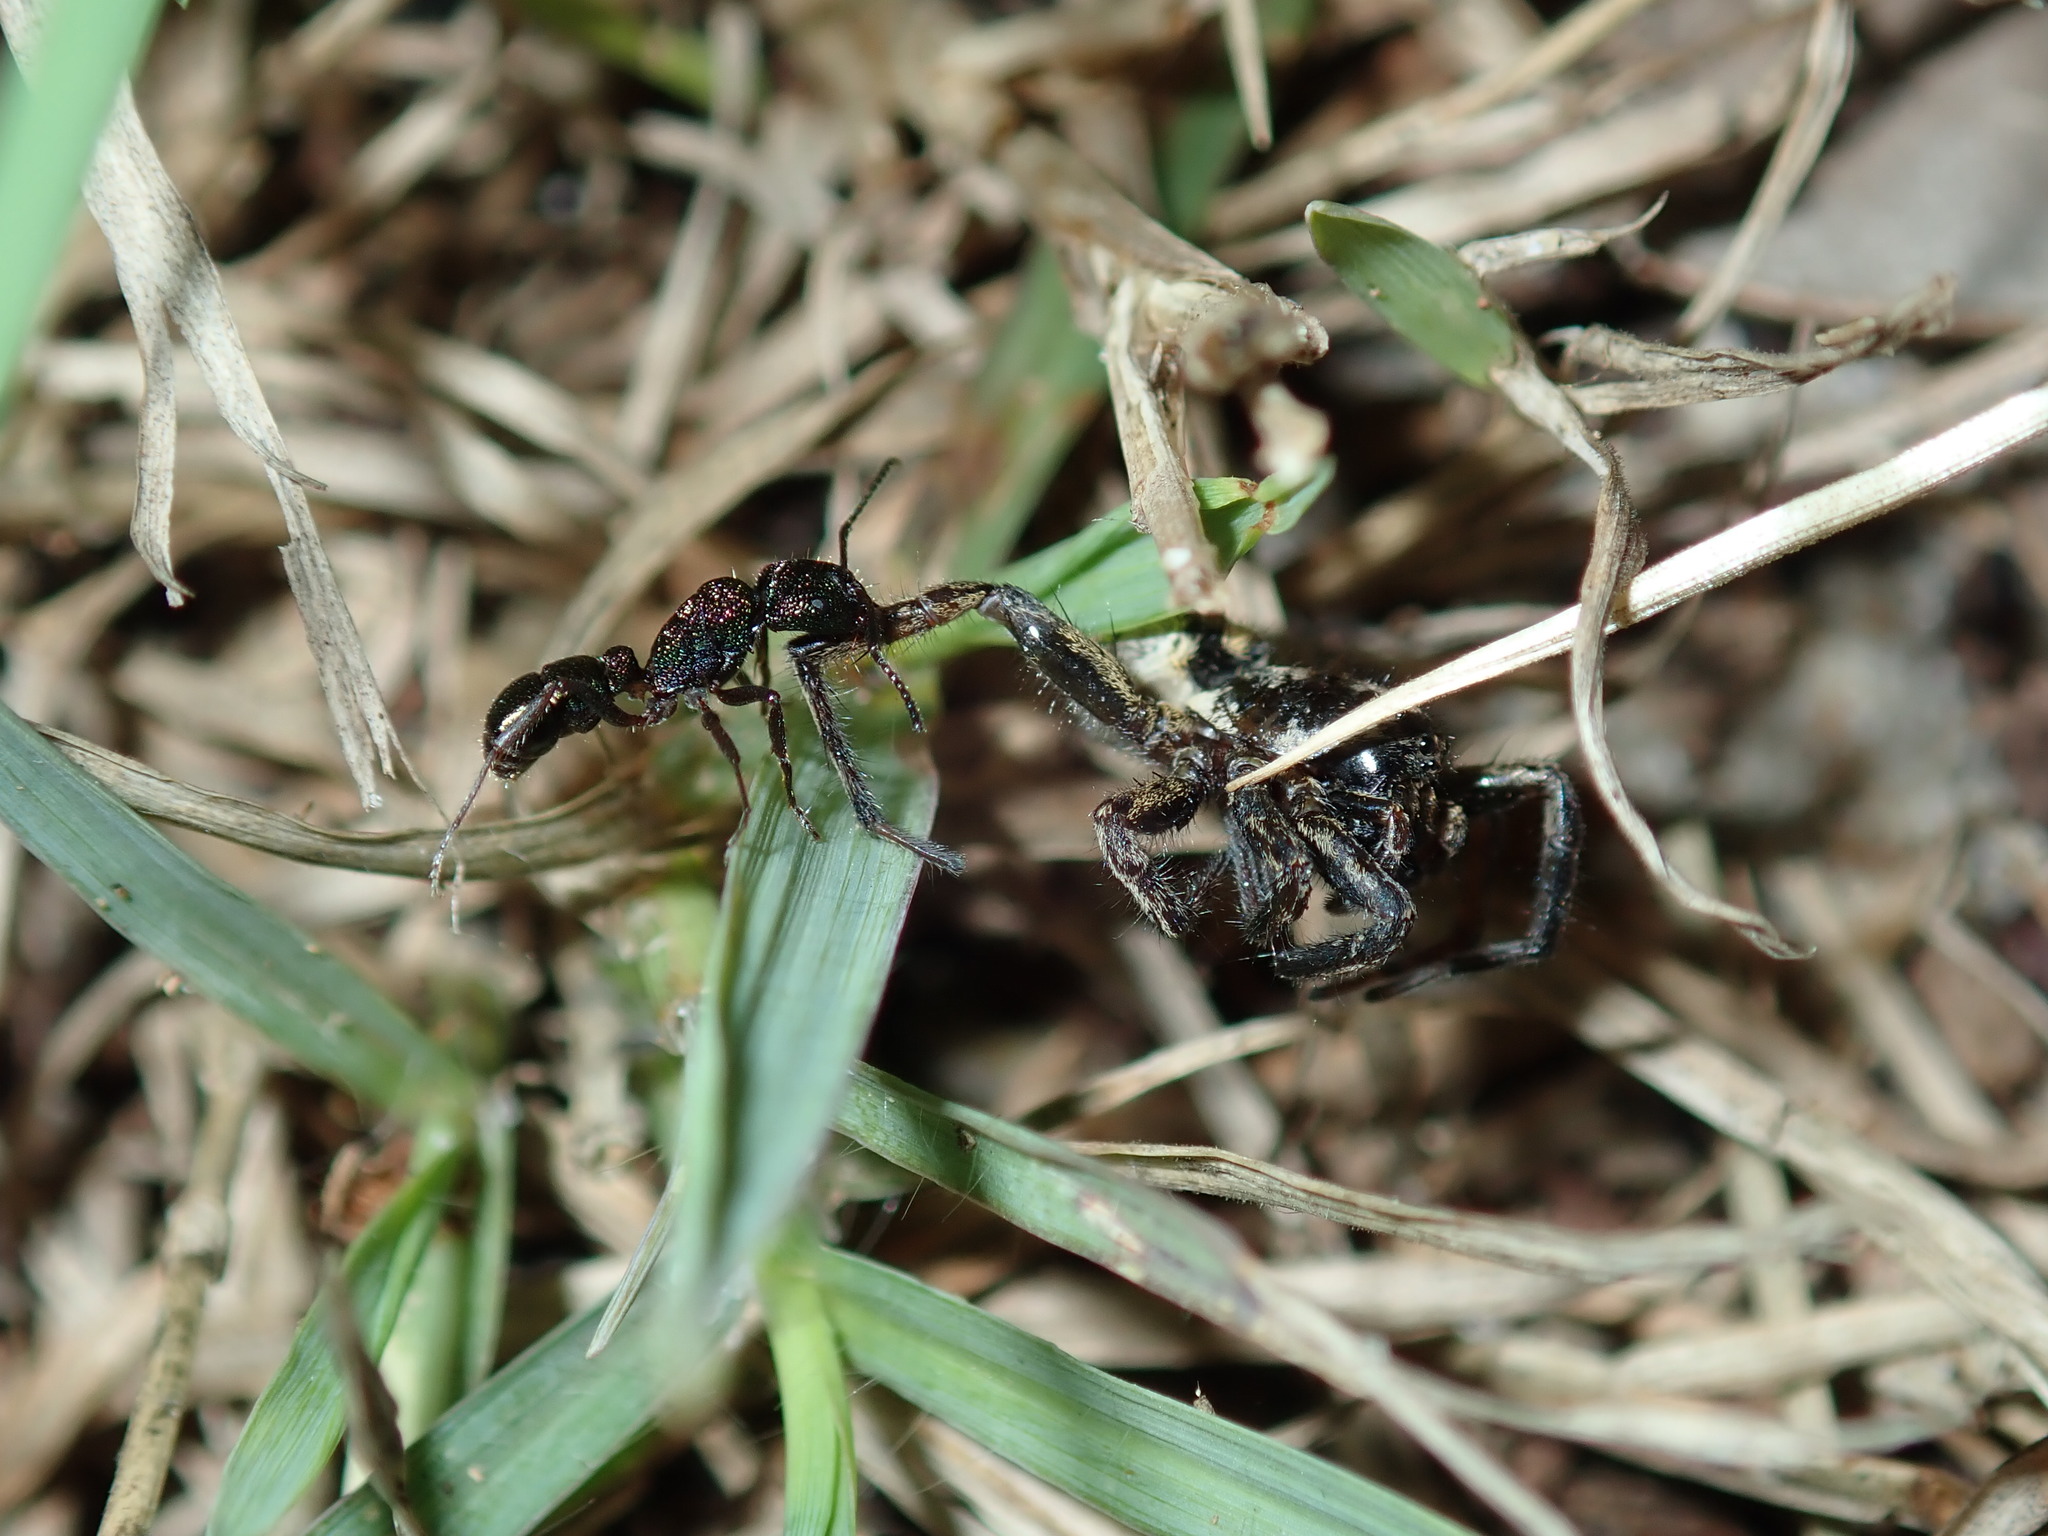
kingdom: Animalia
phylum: Arthropoda
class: Insecta
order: Hymenoptera
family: Formicidae
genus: Rhytidoponera
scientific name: Rhytidoponera metallica
